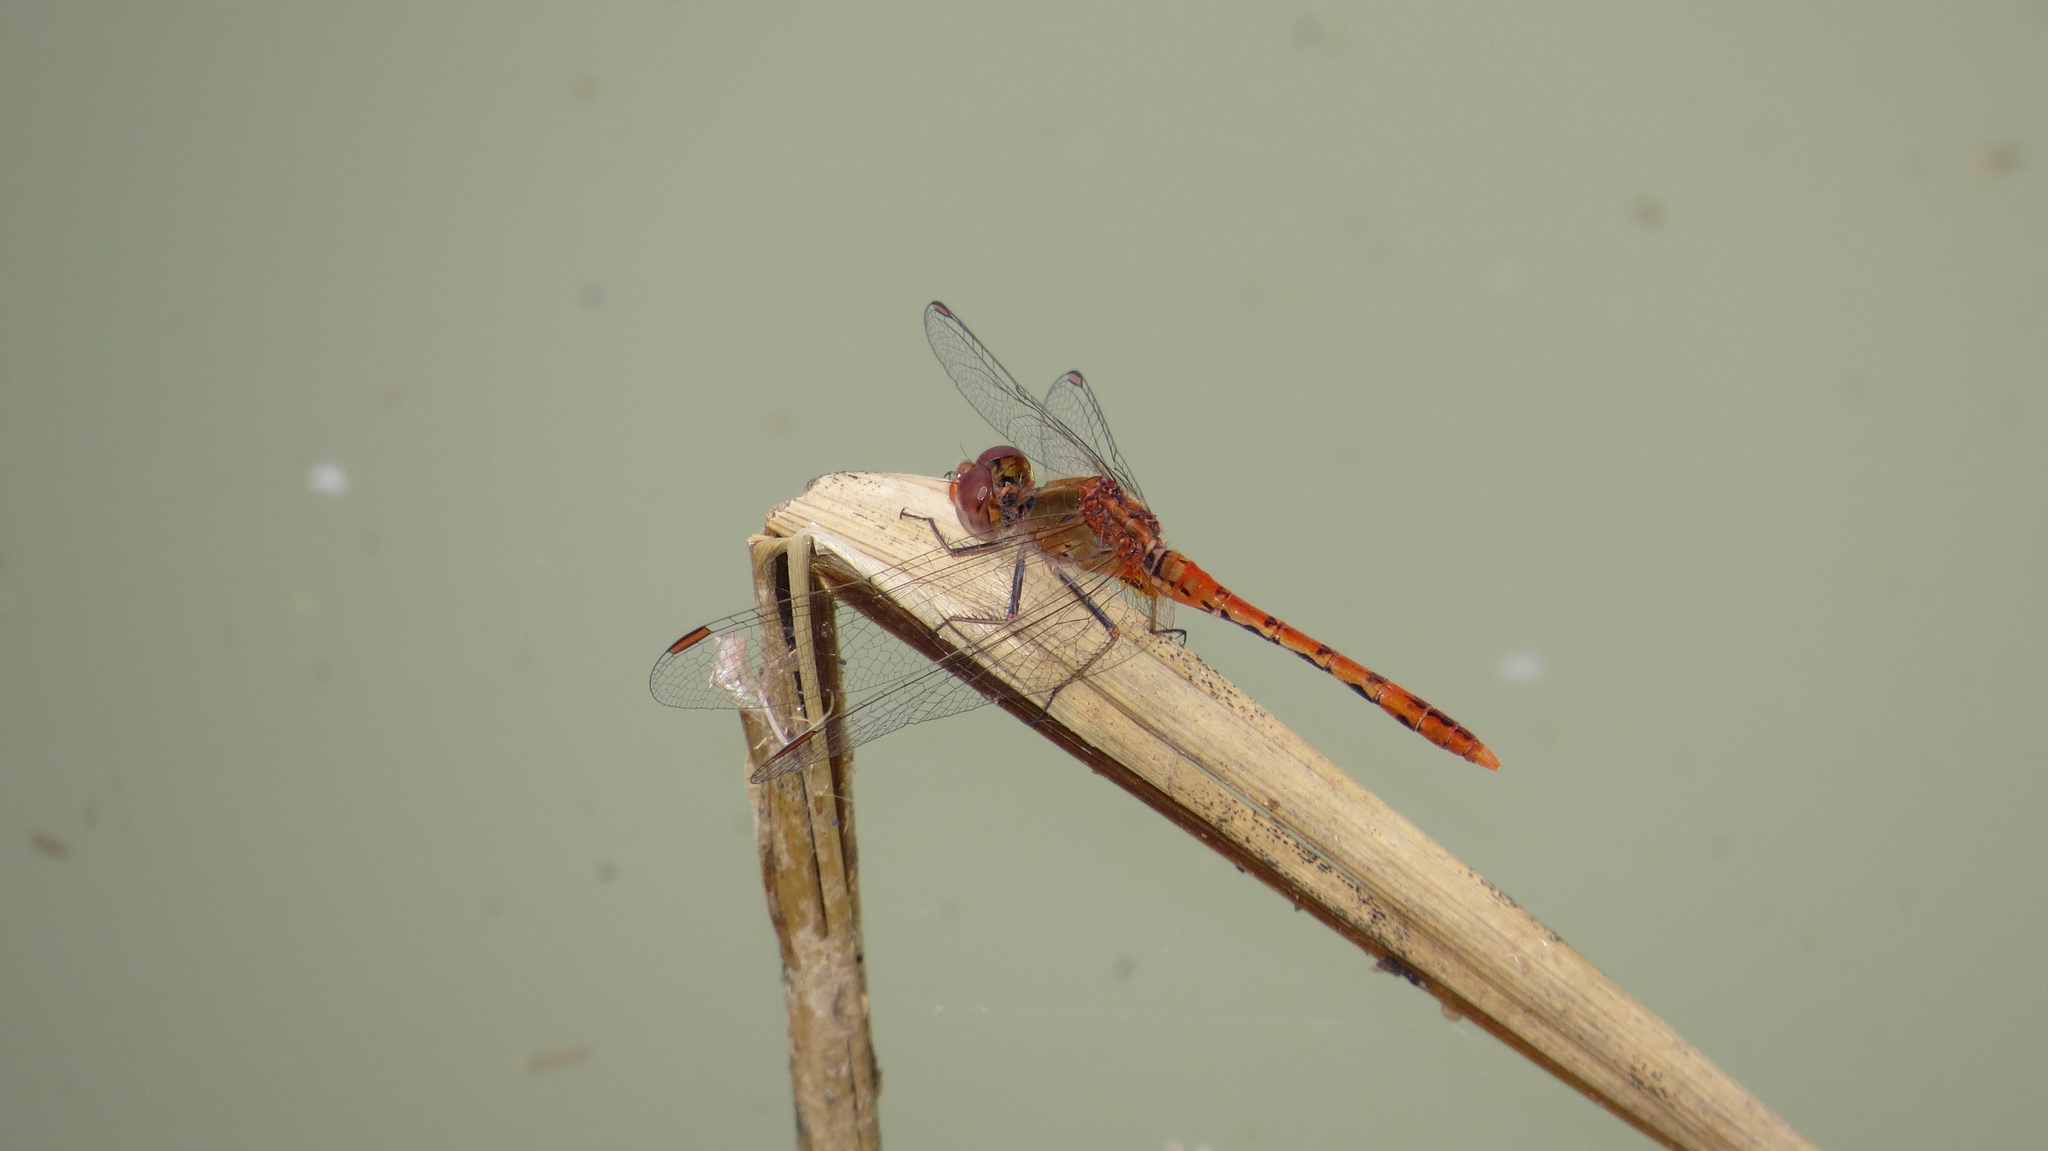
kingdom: Animalia
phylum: Arthropoda
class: Insecta
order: Odonata
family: Libellulidae
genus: Diplacodes
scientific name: Diplacodes bipunctata
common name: Red percher dragonfly
